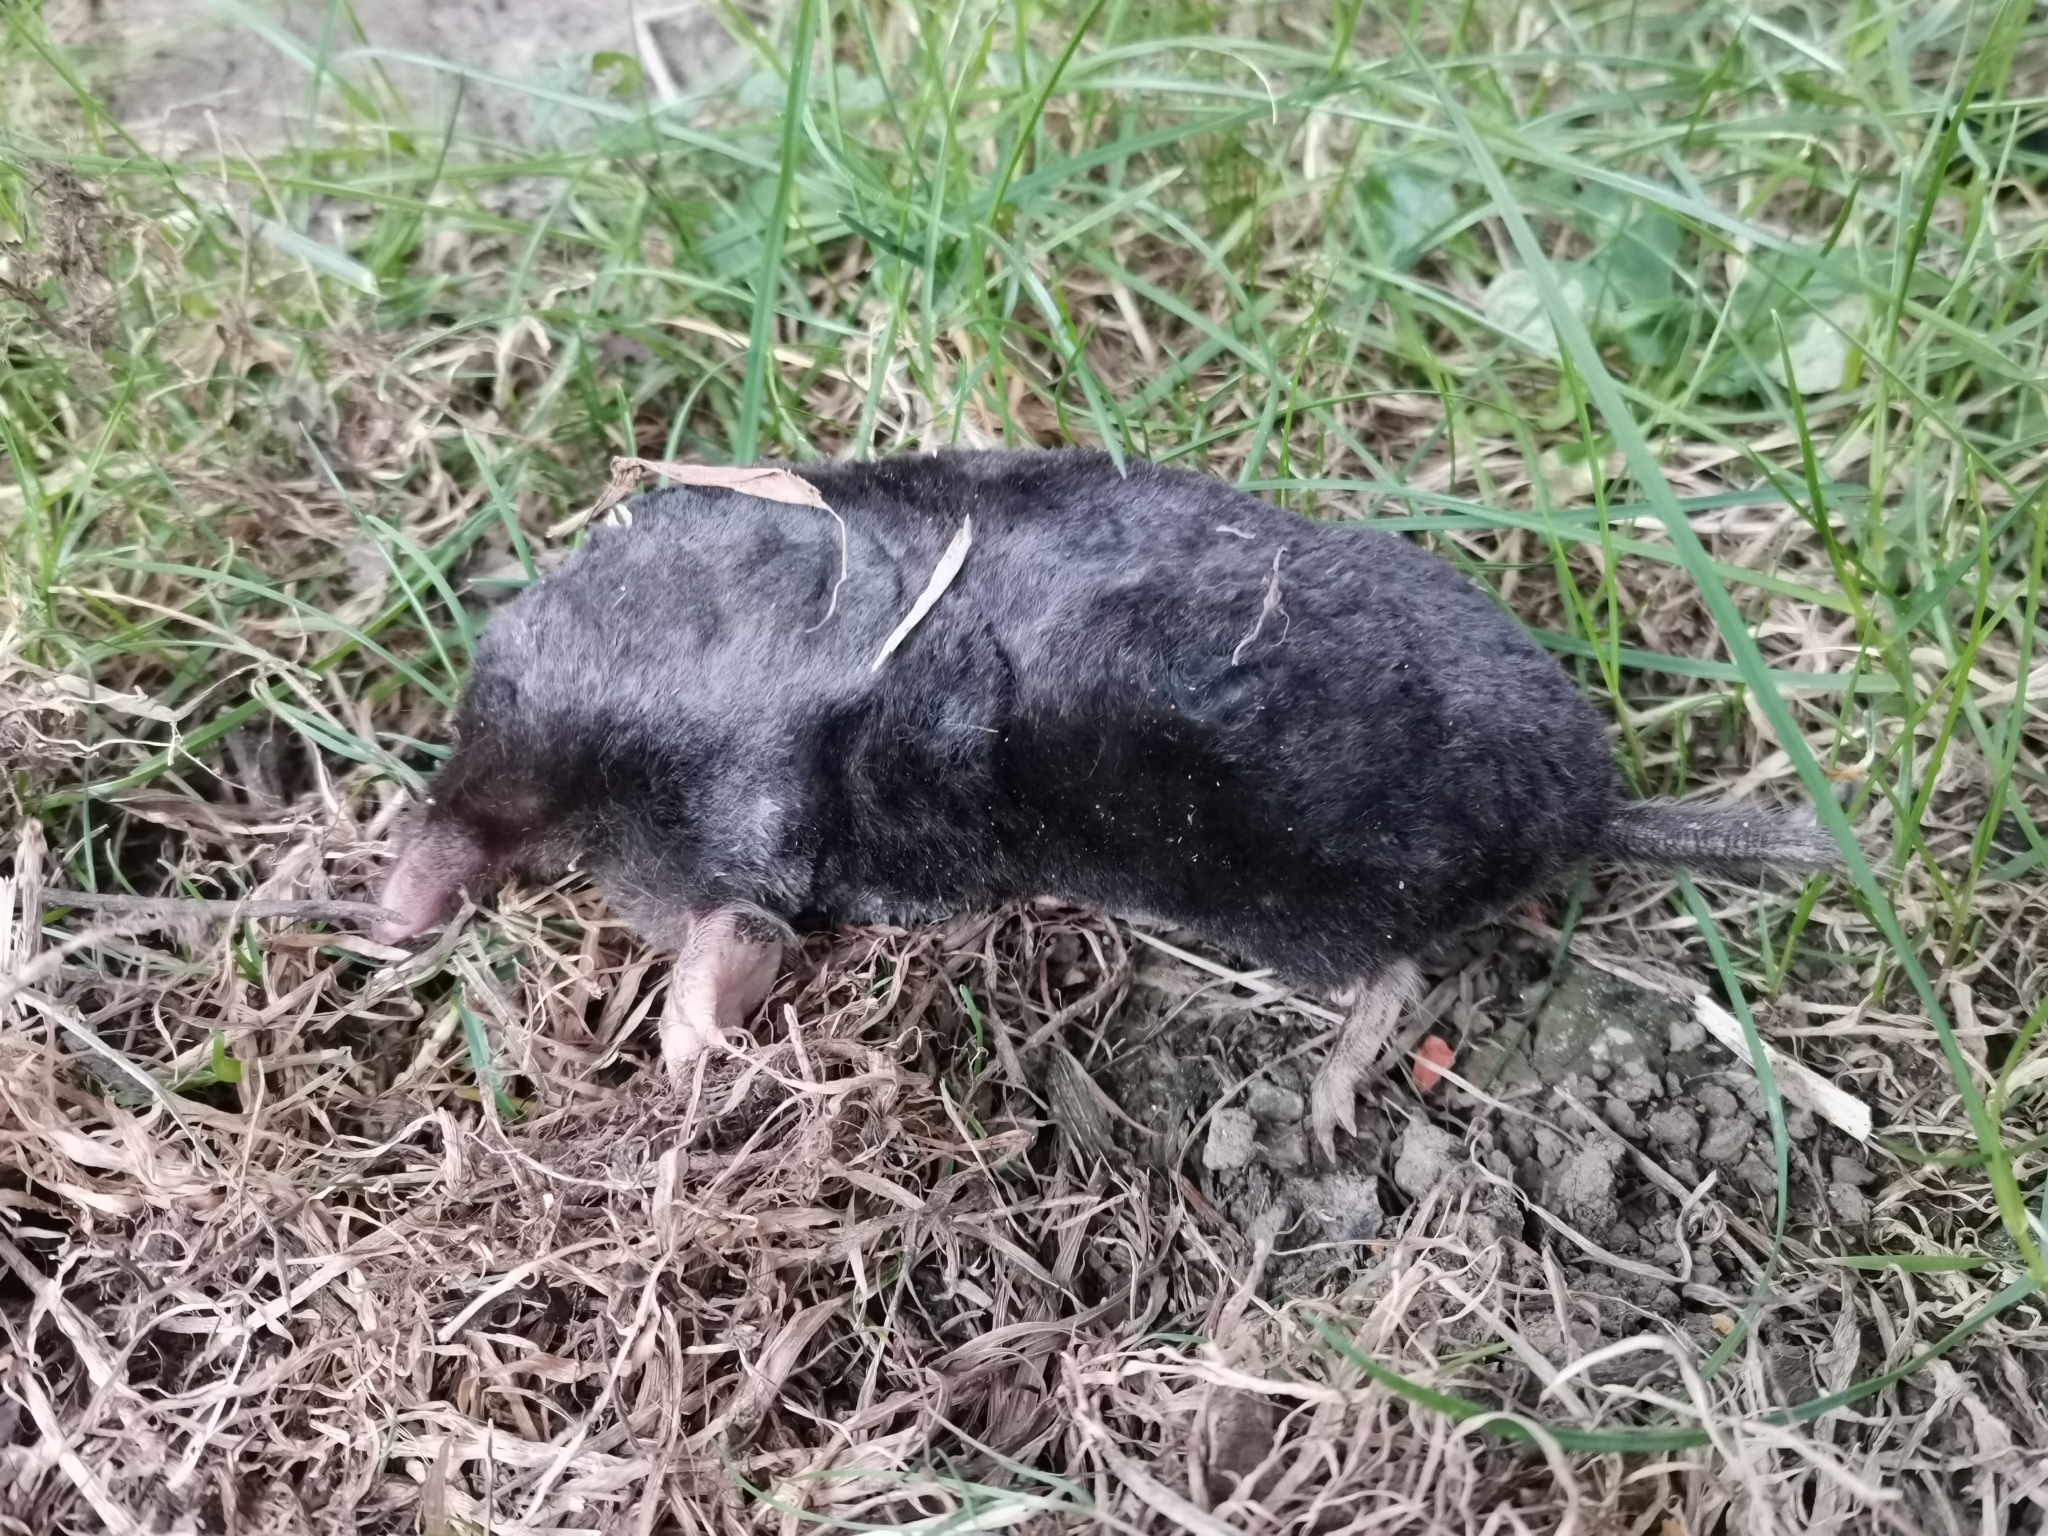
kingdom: Animalia
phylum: Chordata
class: Mammalia
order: Soricomorpha
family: Talpidae
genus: Talpa
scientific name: Talpa aquitania
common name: Aquitanian mole
